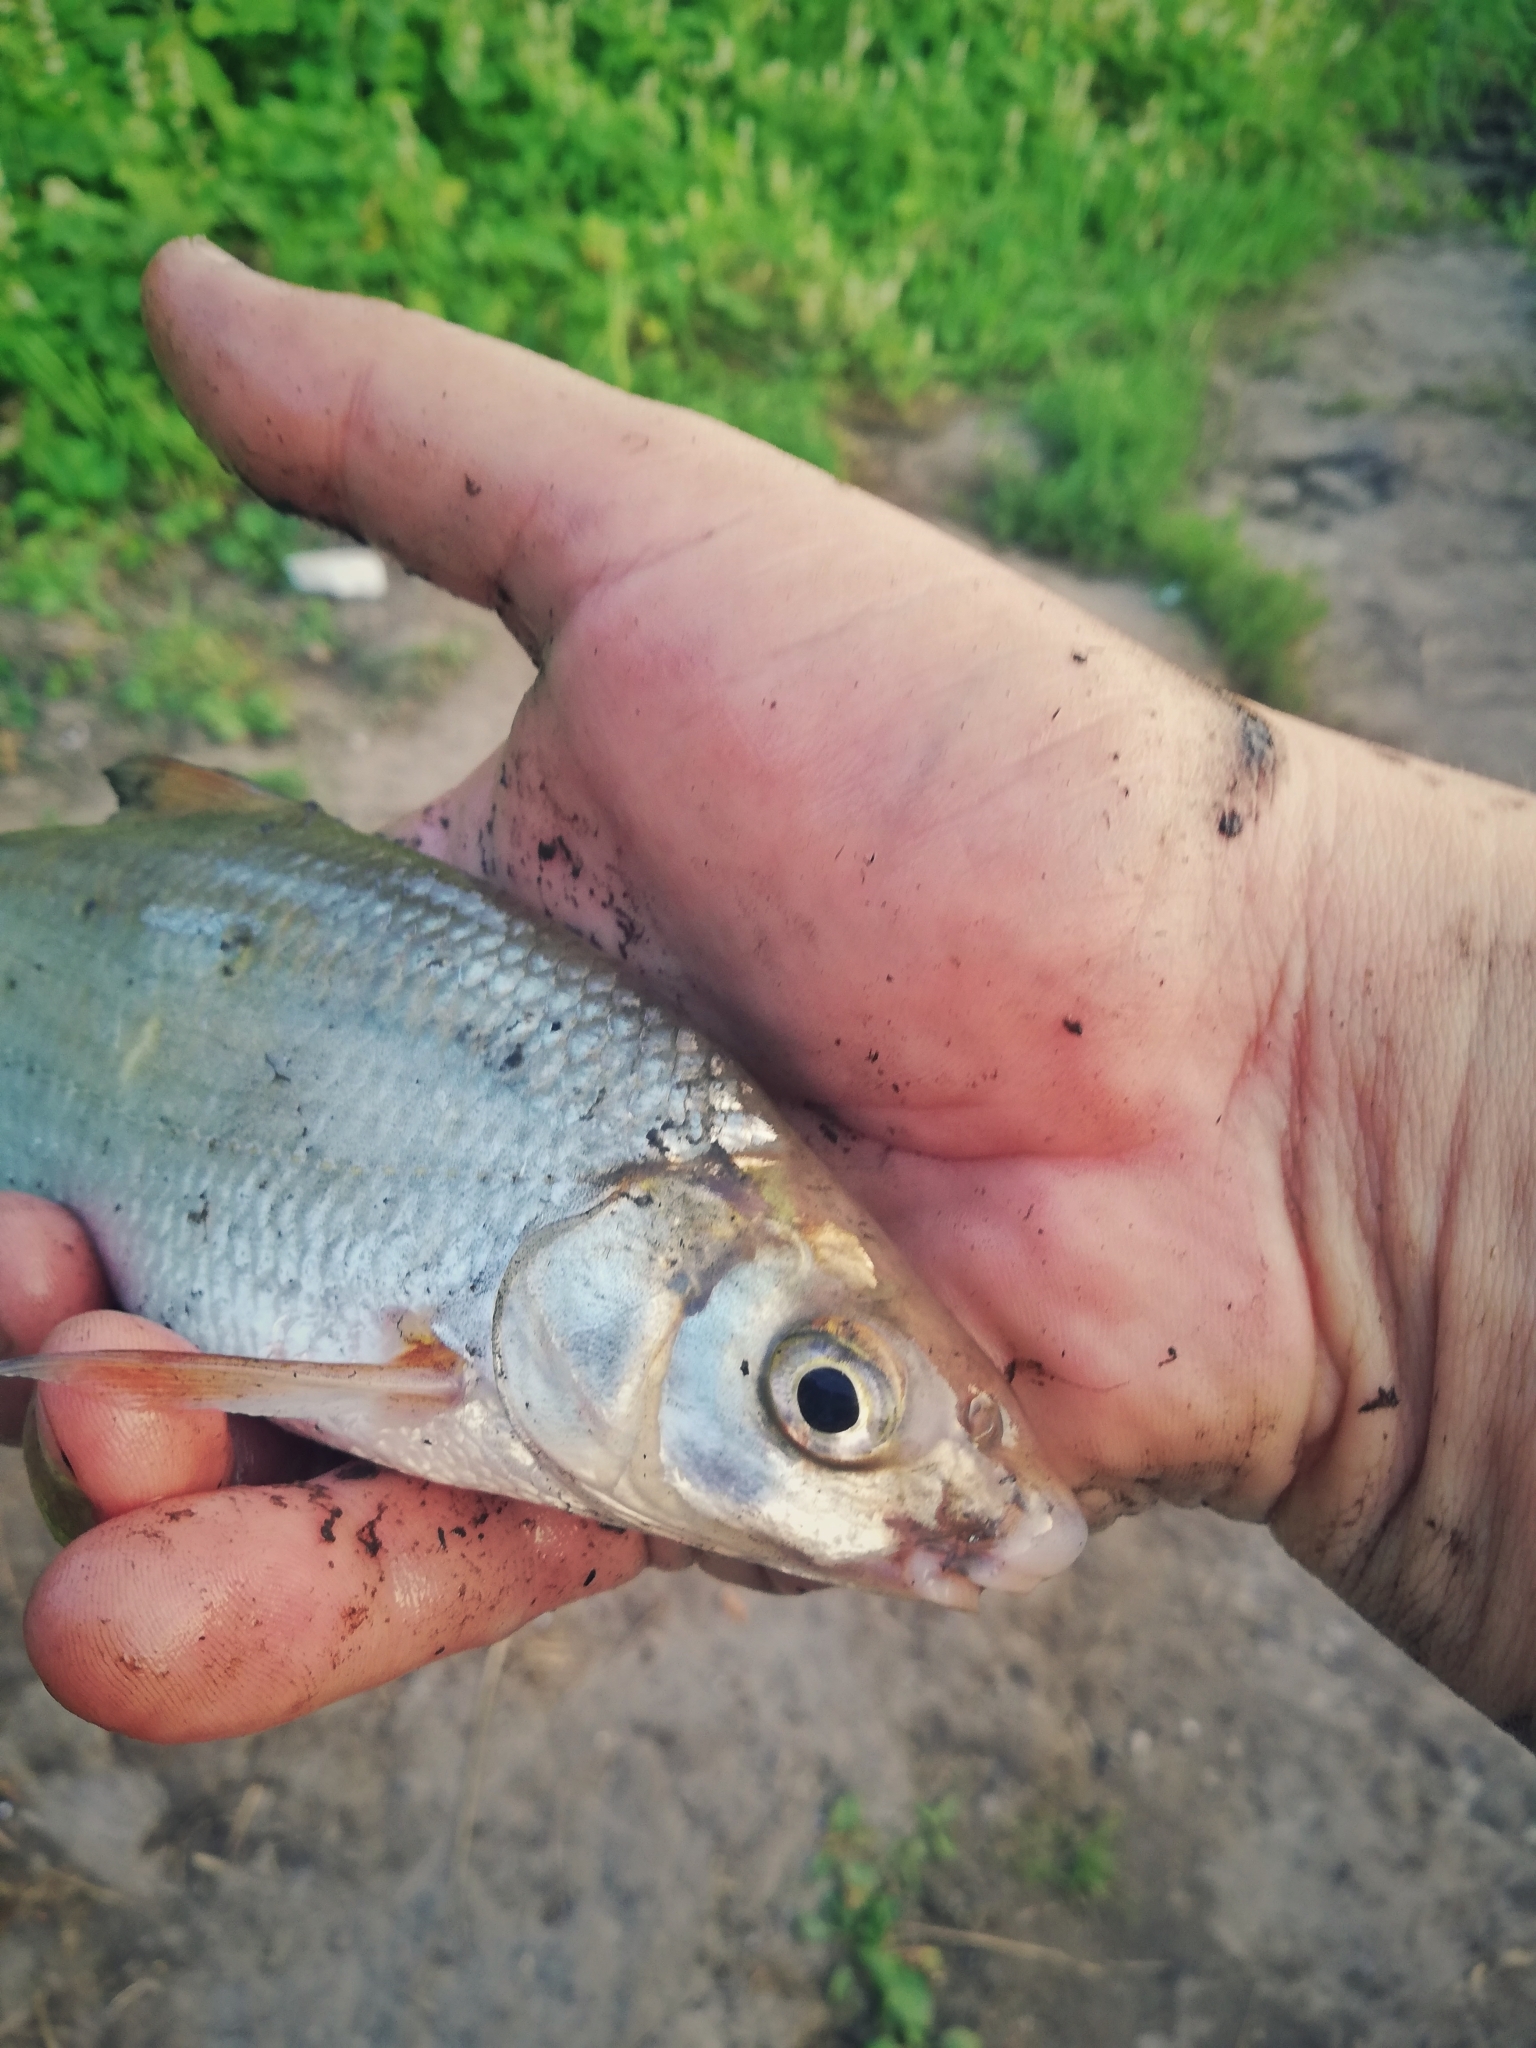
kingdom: Animalia
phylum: Chordata
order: Cypriniformes
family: Cyprinidae
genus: Vimba
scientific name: Vimba vimba
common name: Vimba
